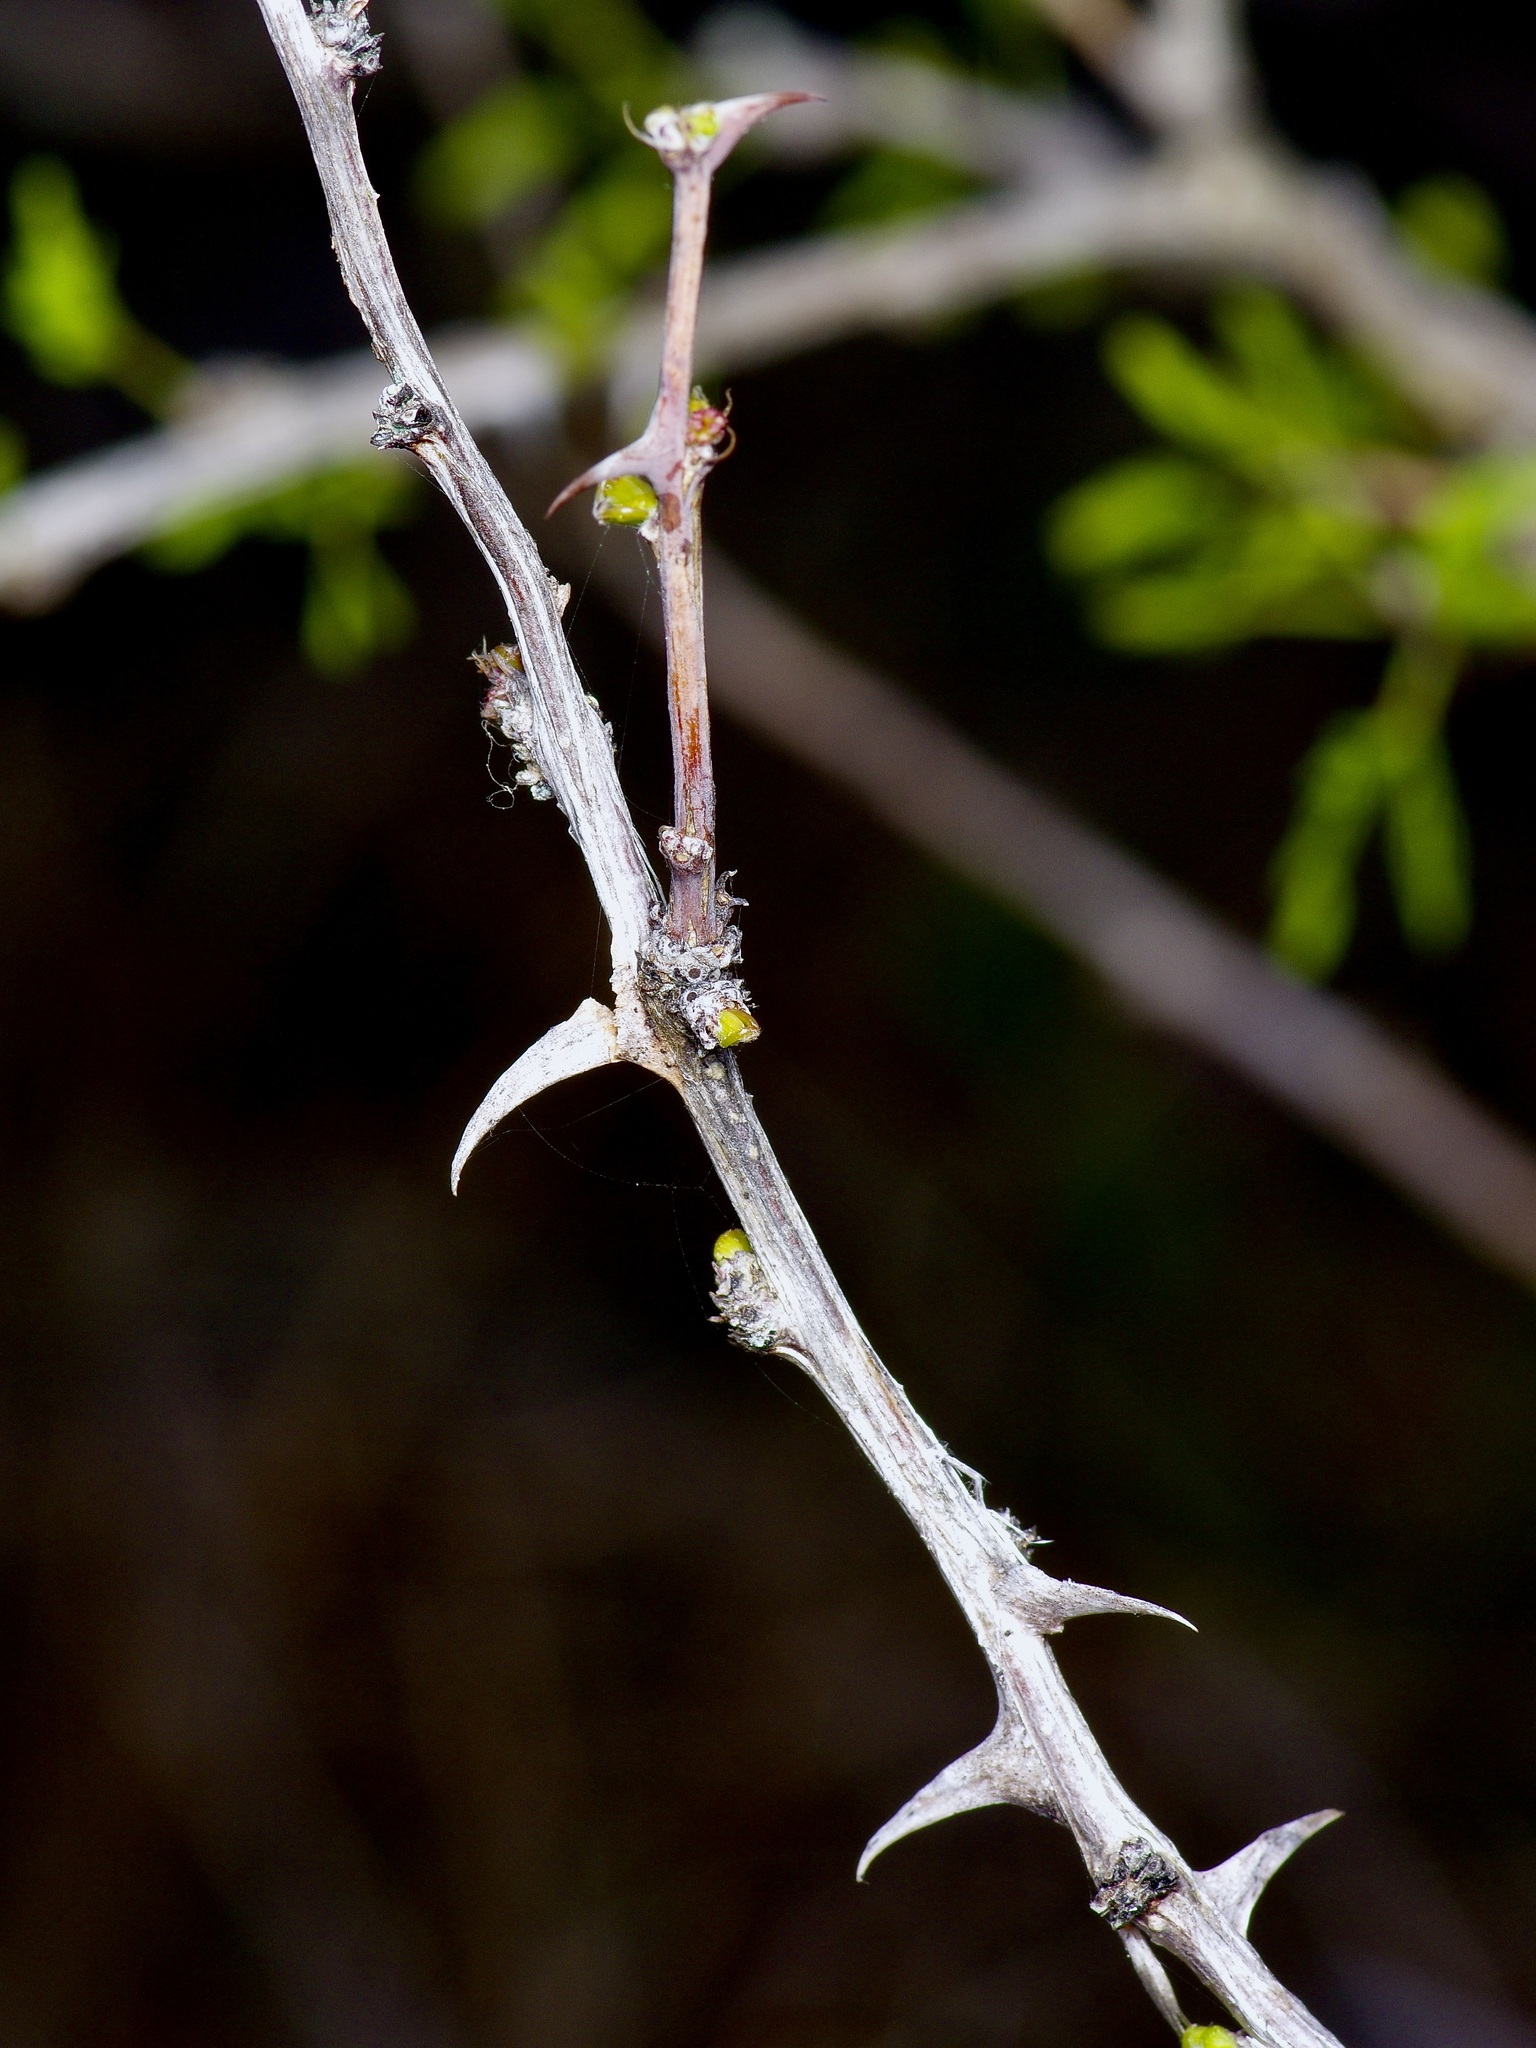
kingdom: Plantae
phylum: Tracheophyta
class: Magnoliopsida
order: Fabales
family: Fabaceae
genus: Mimosa
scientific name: Mimosa borealis
